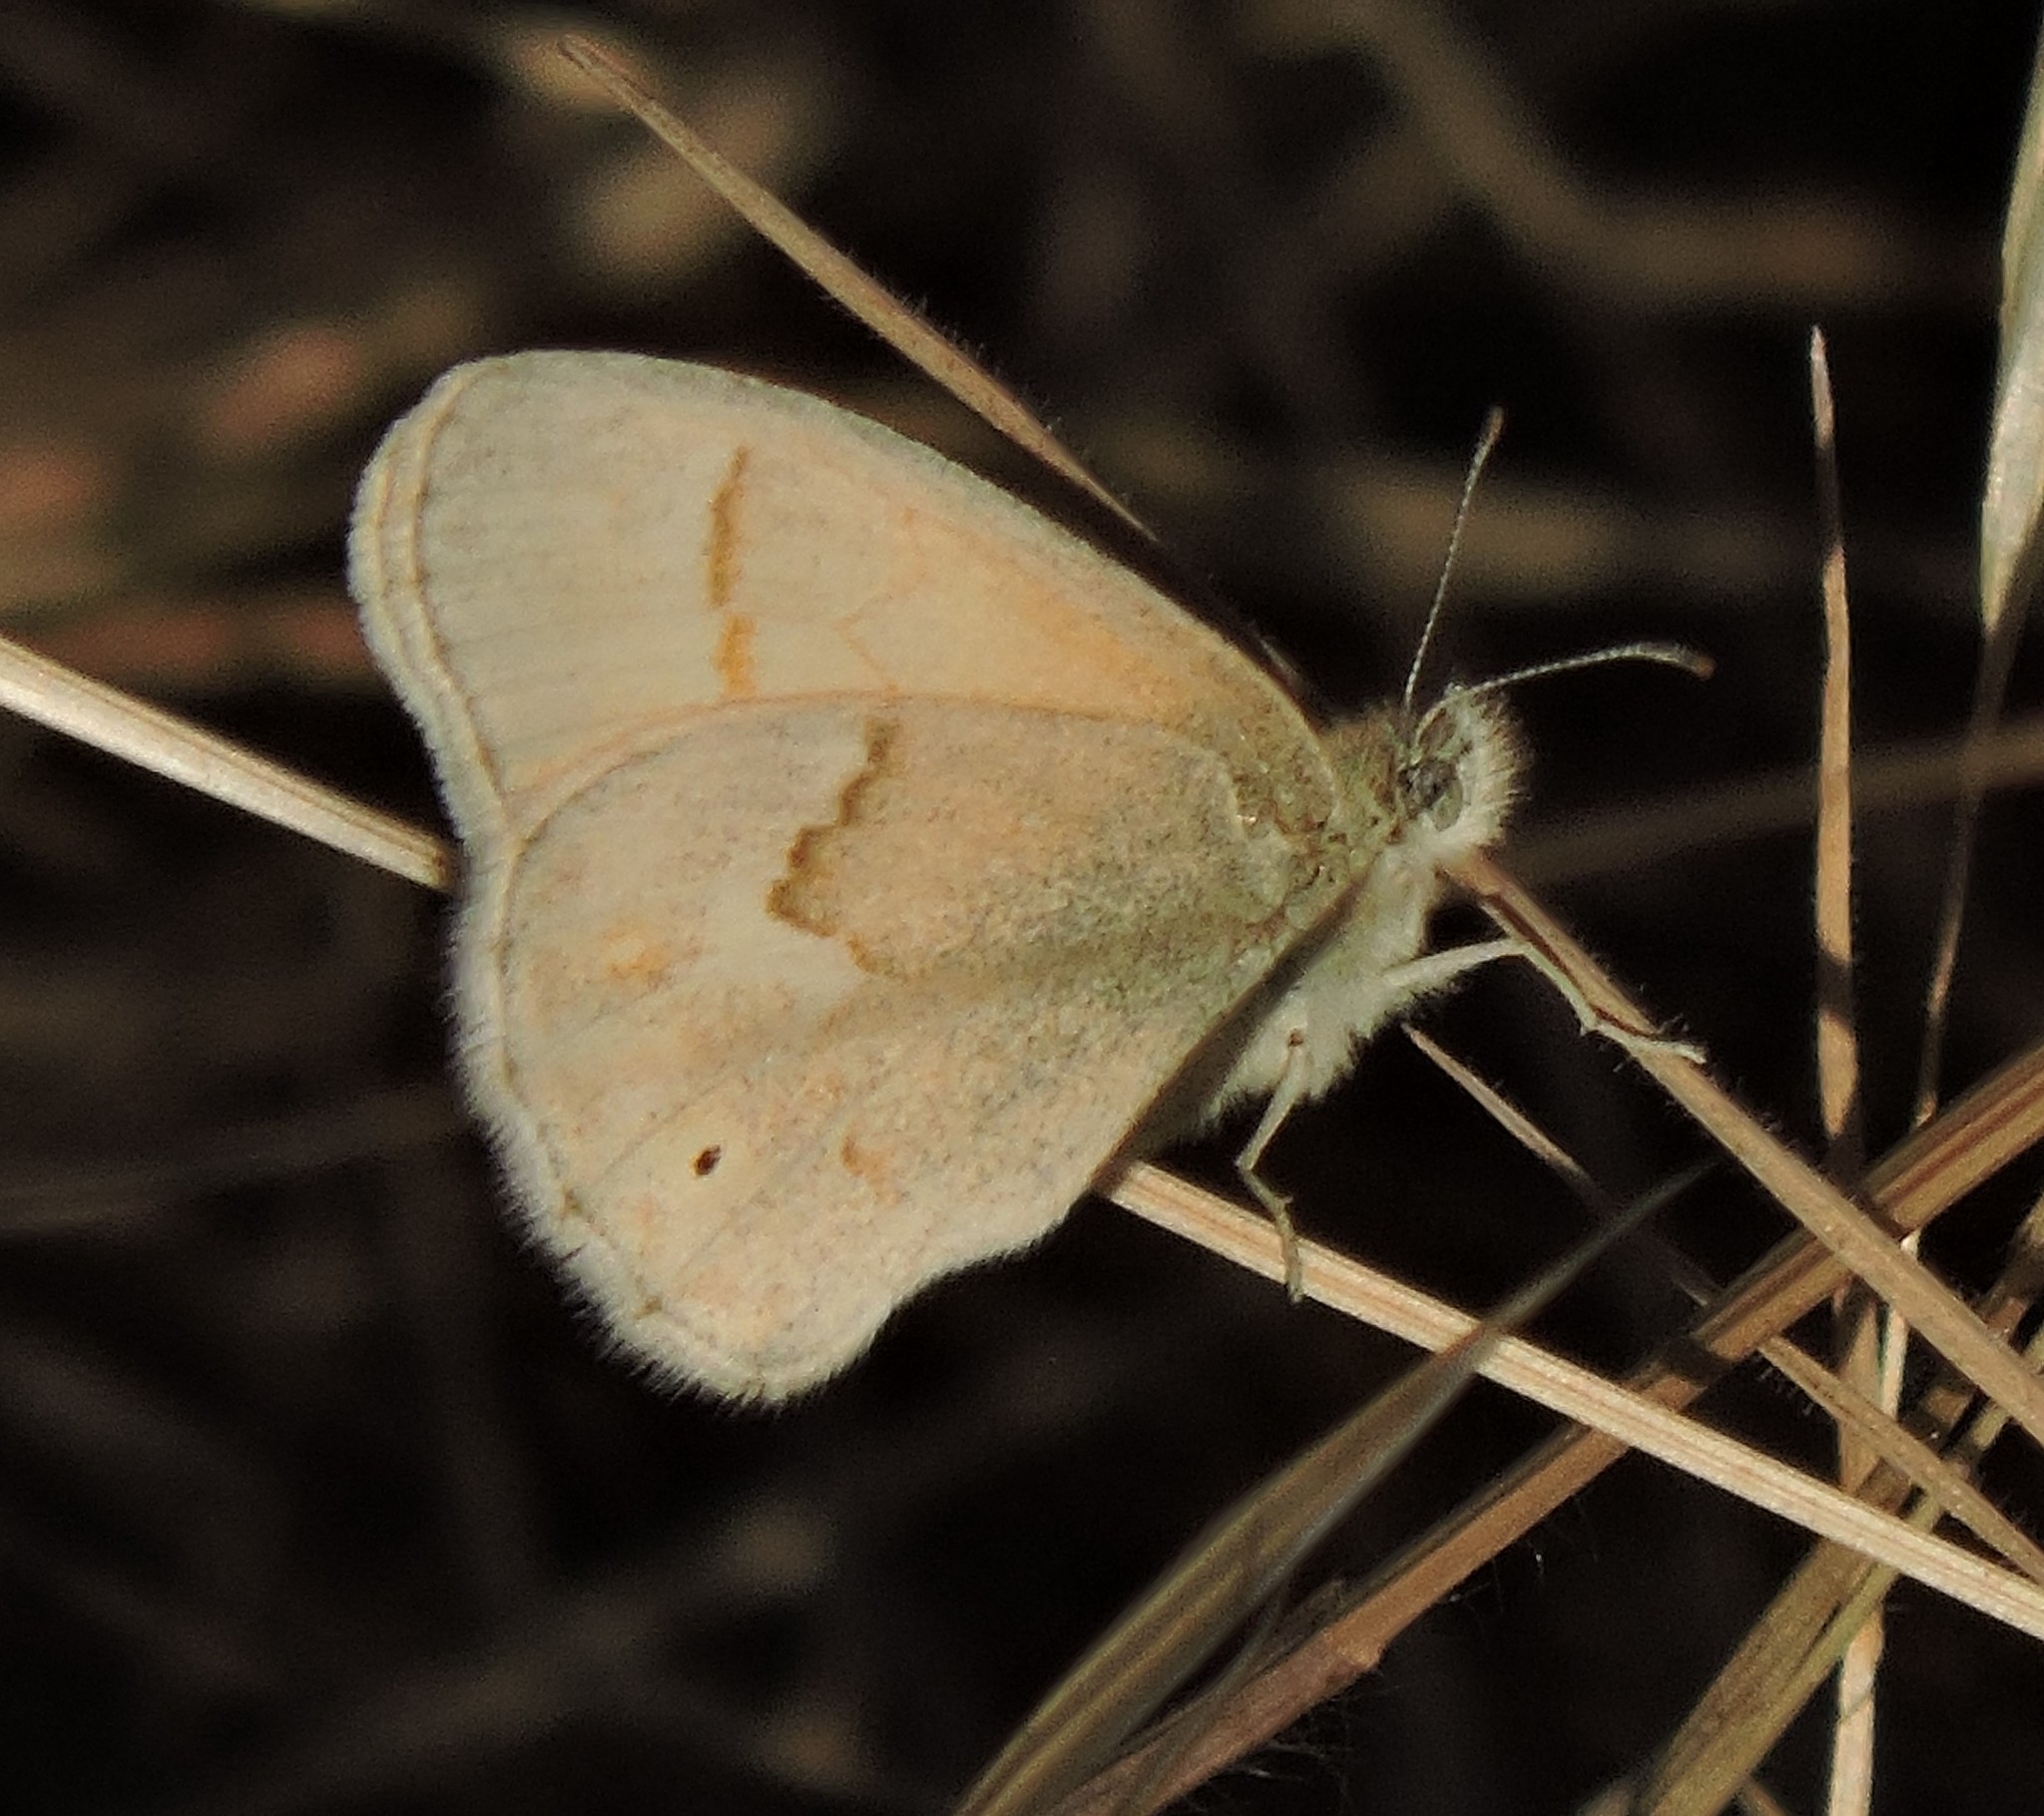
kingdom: Animalia
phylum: Arthropoda
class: Insecta
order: Lepidoptera
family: Nymphalidae
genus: Coenonympha
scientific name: Coenonympha california
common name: Common ringlet
